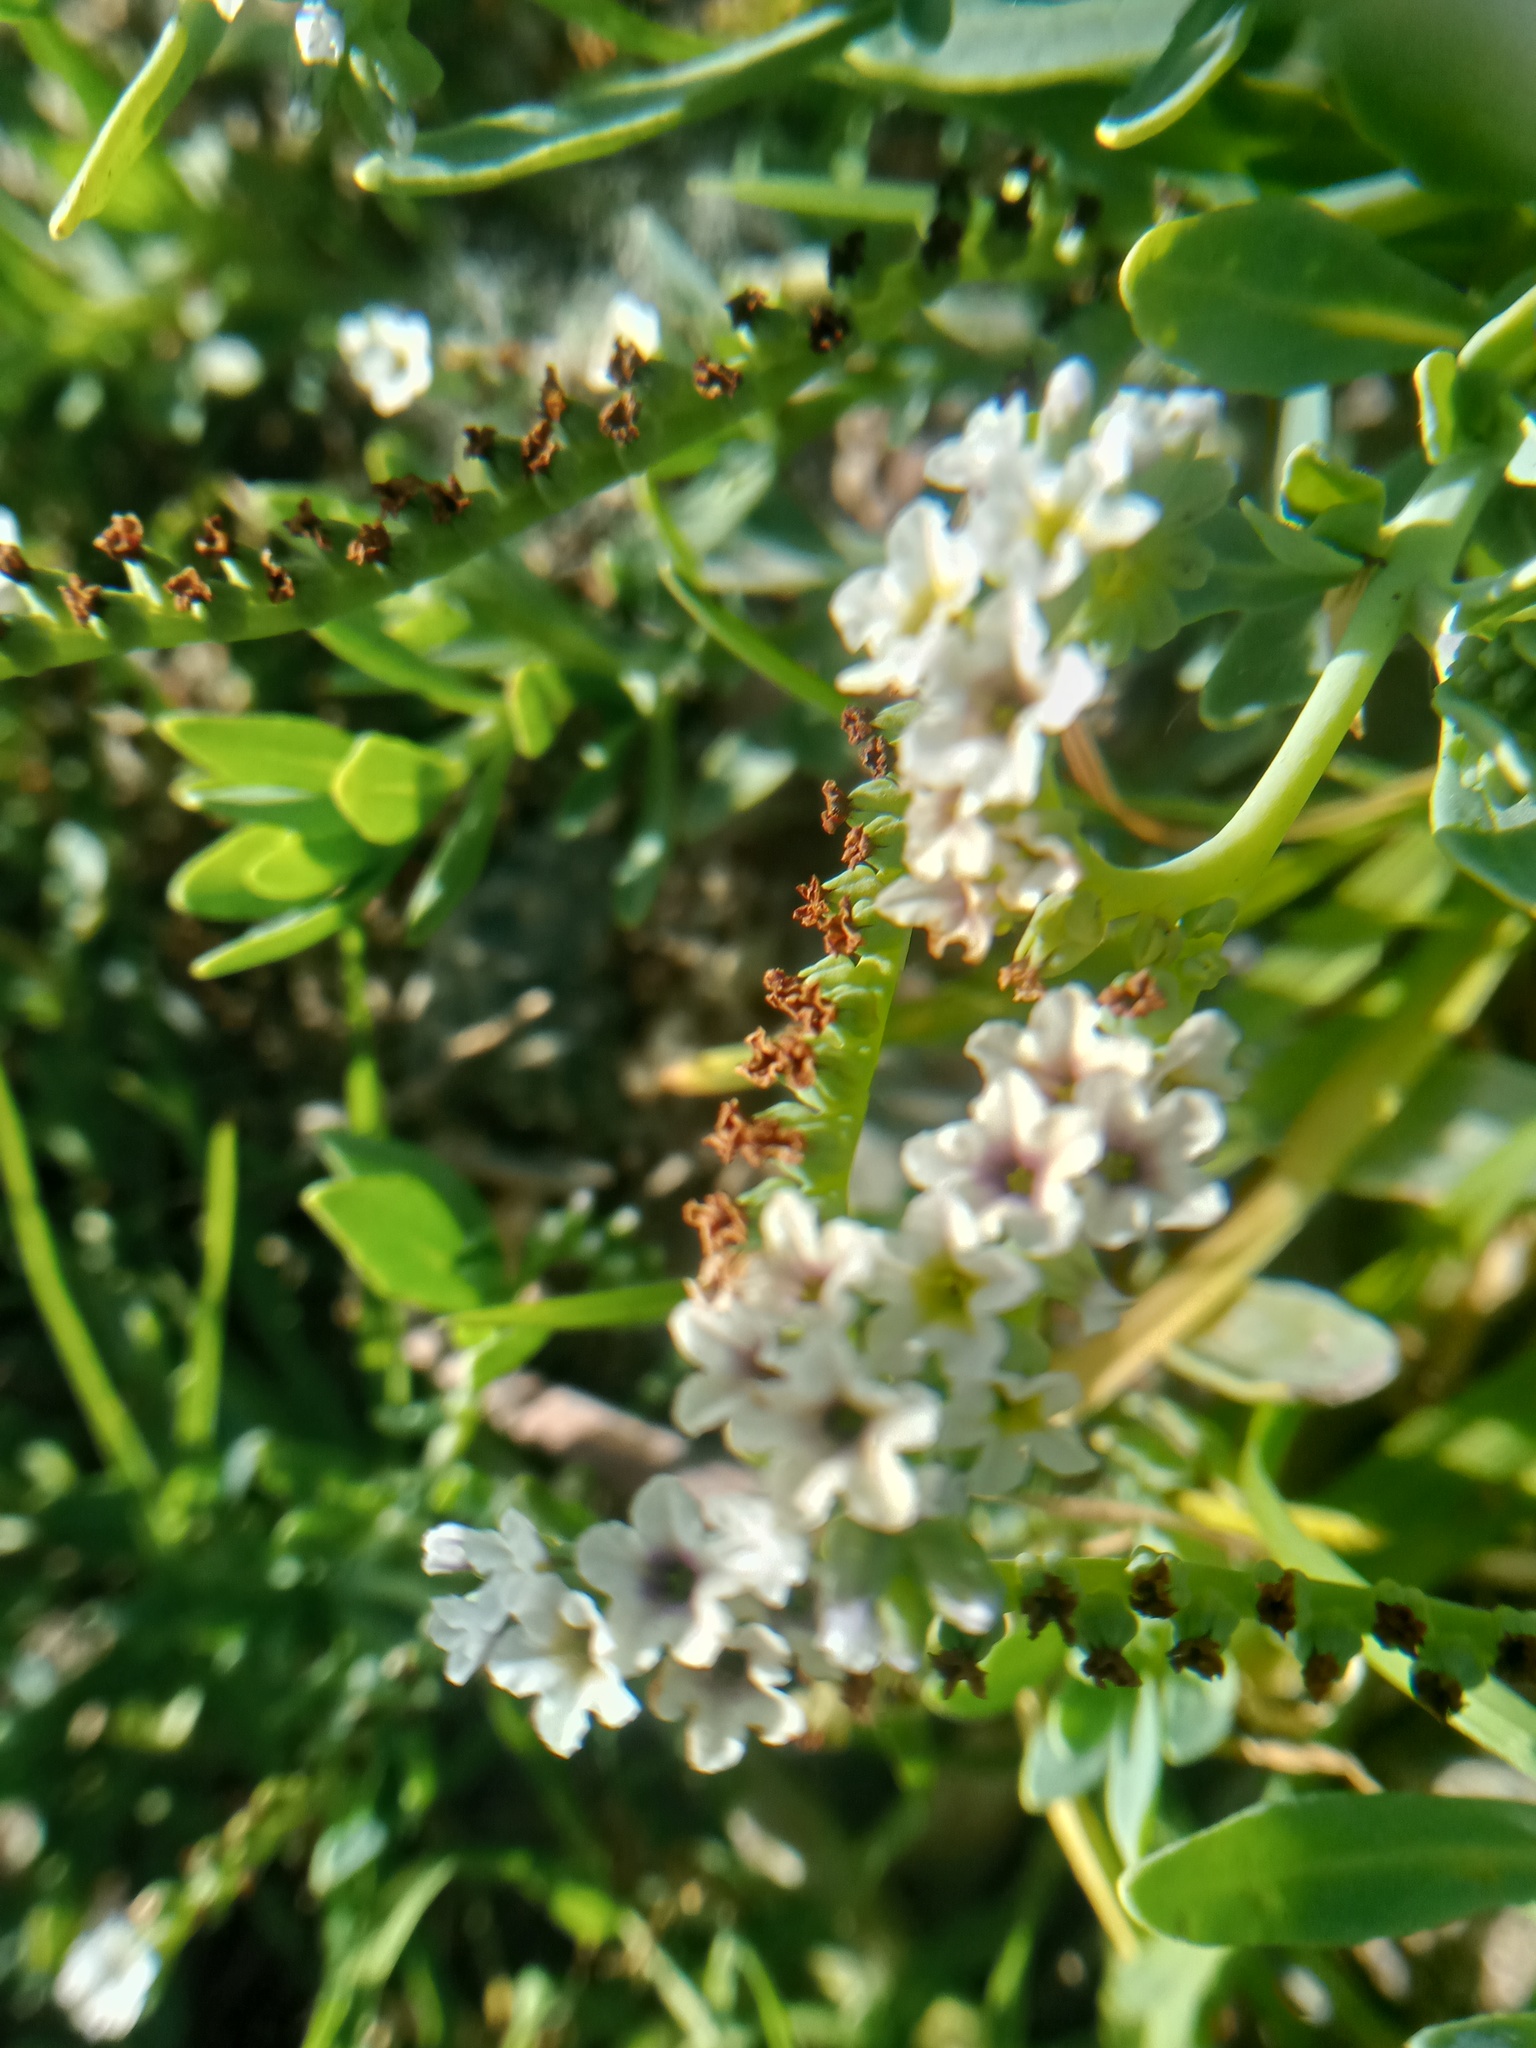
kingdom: Plantae
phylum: Tracheophyta
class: Magnoliopsida
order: Boraginales
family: Heliotropiaceae
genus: Heliotropium
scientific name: Heliotropium curassavicum
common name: Seaside heliotrope
